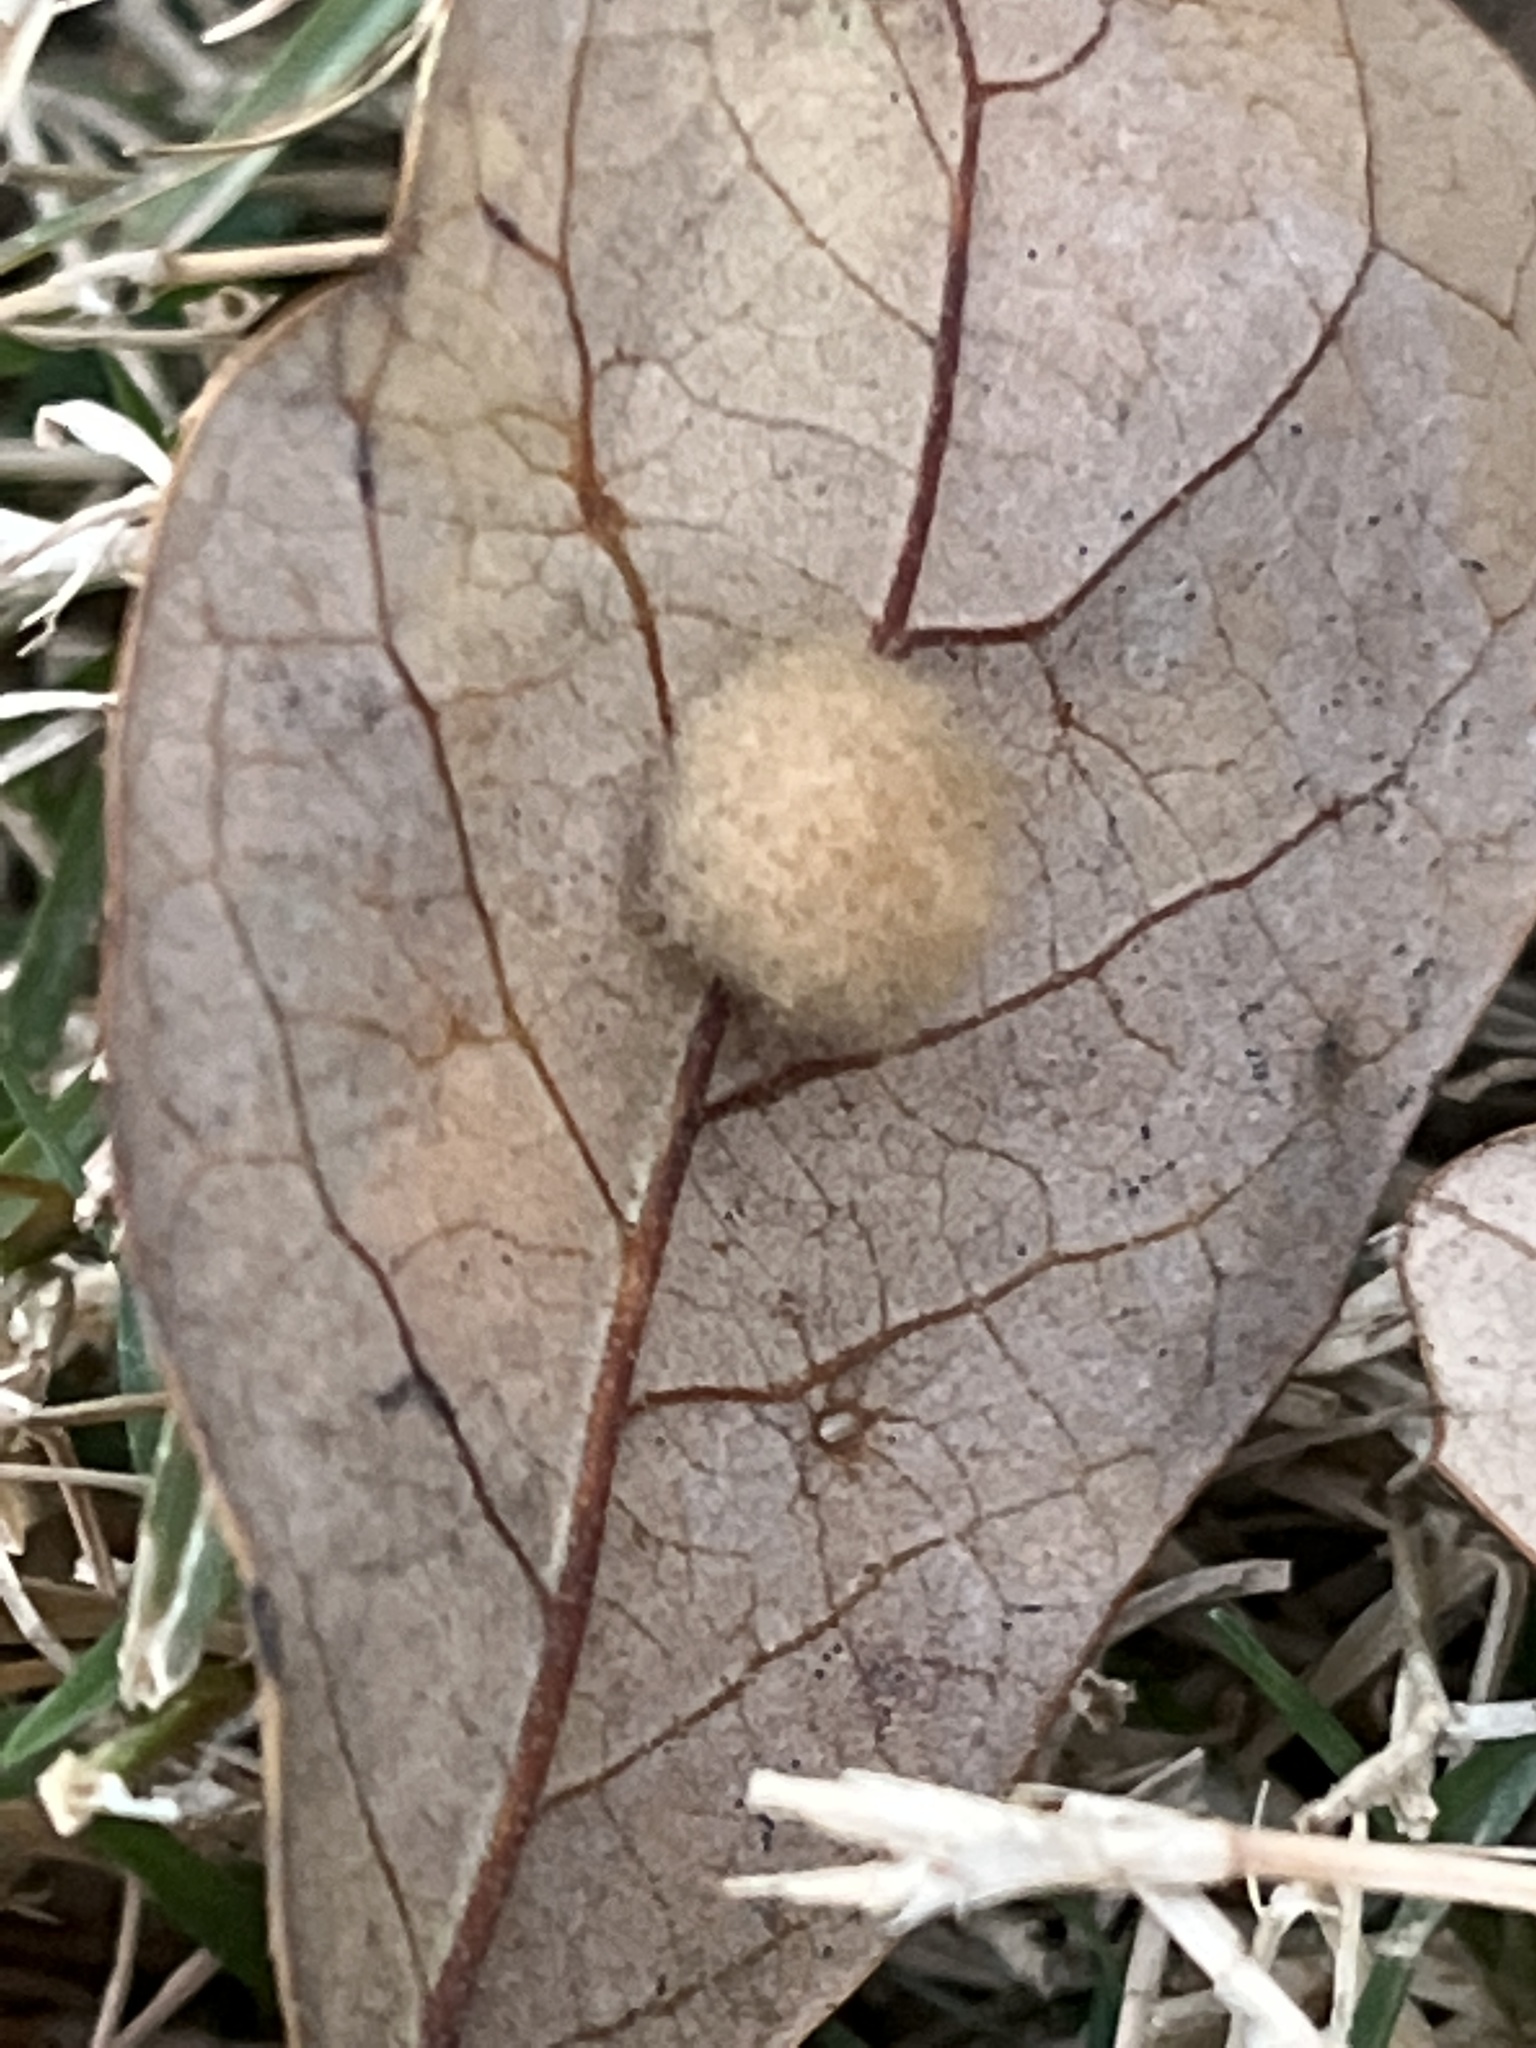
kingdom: Animalia
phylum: Arthropoda
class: Insecta
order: Hymenoptera
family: Cynipidae
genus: Andricus
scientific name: Andricus Druon quercuslanigerum
